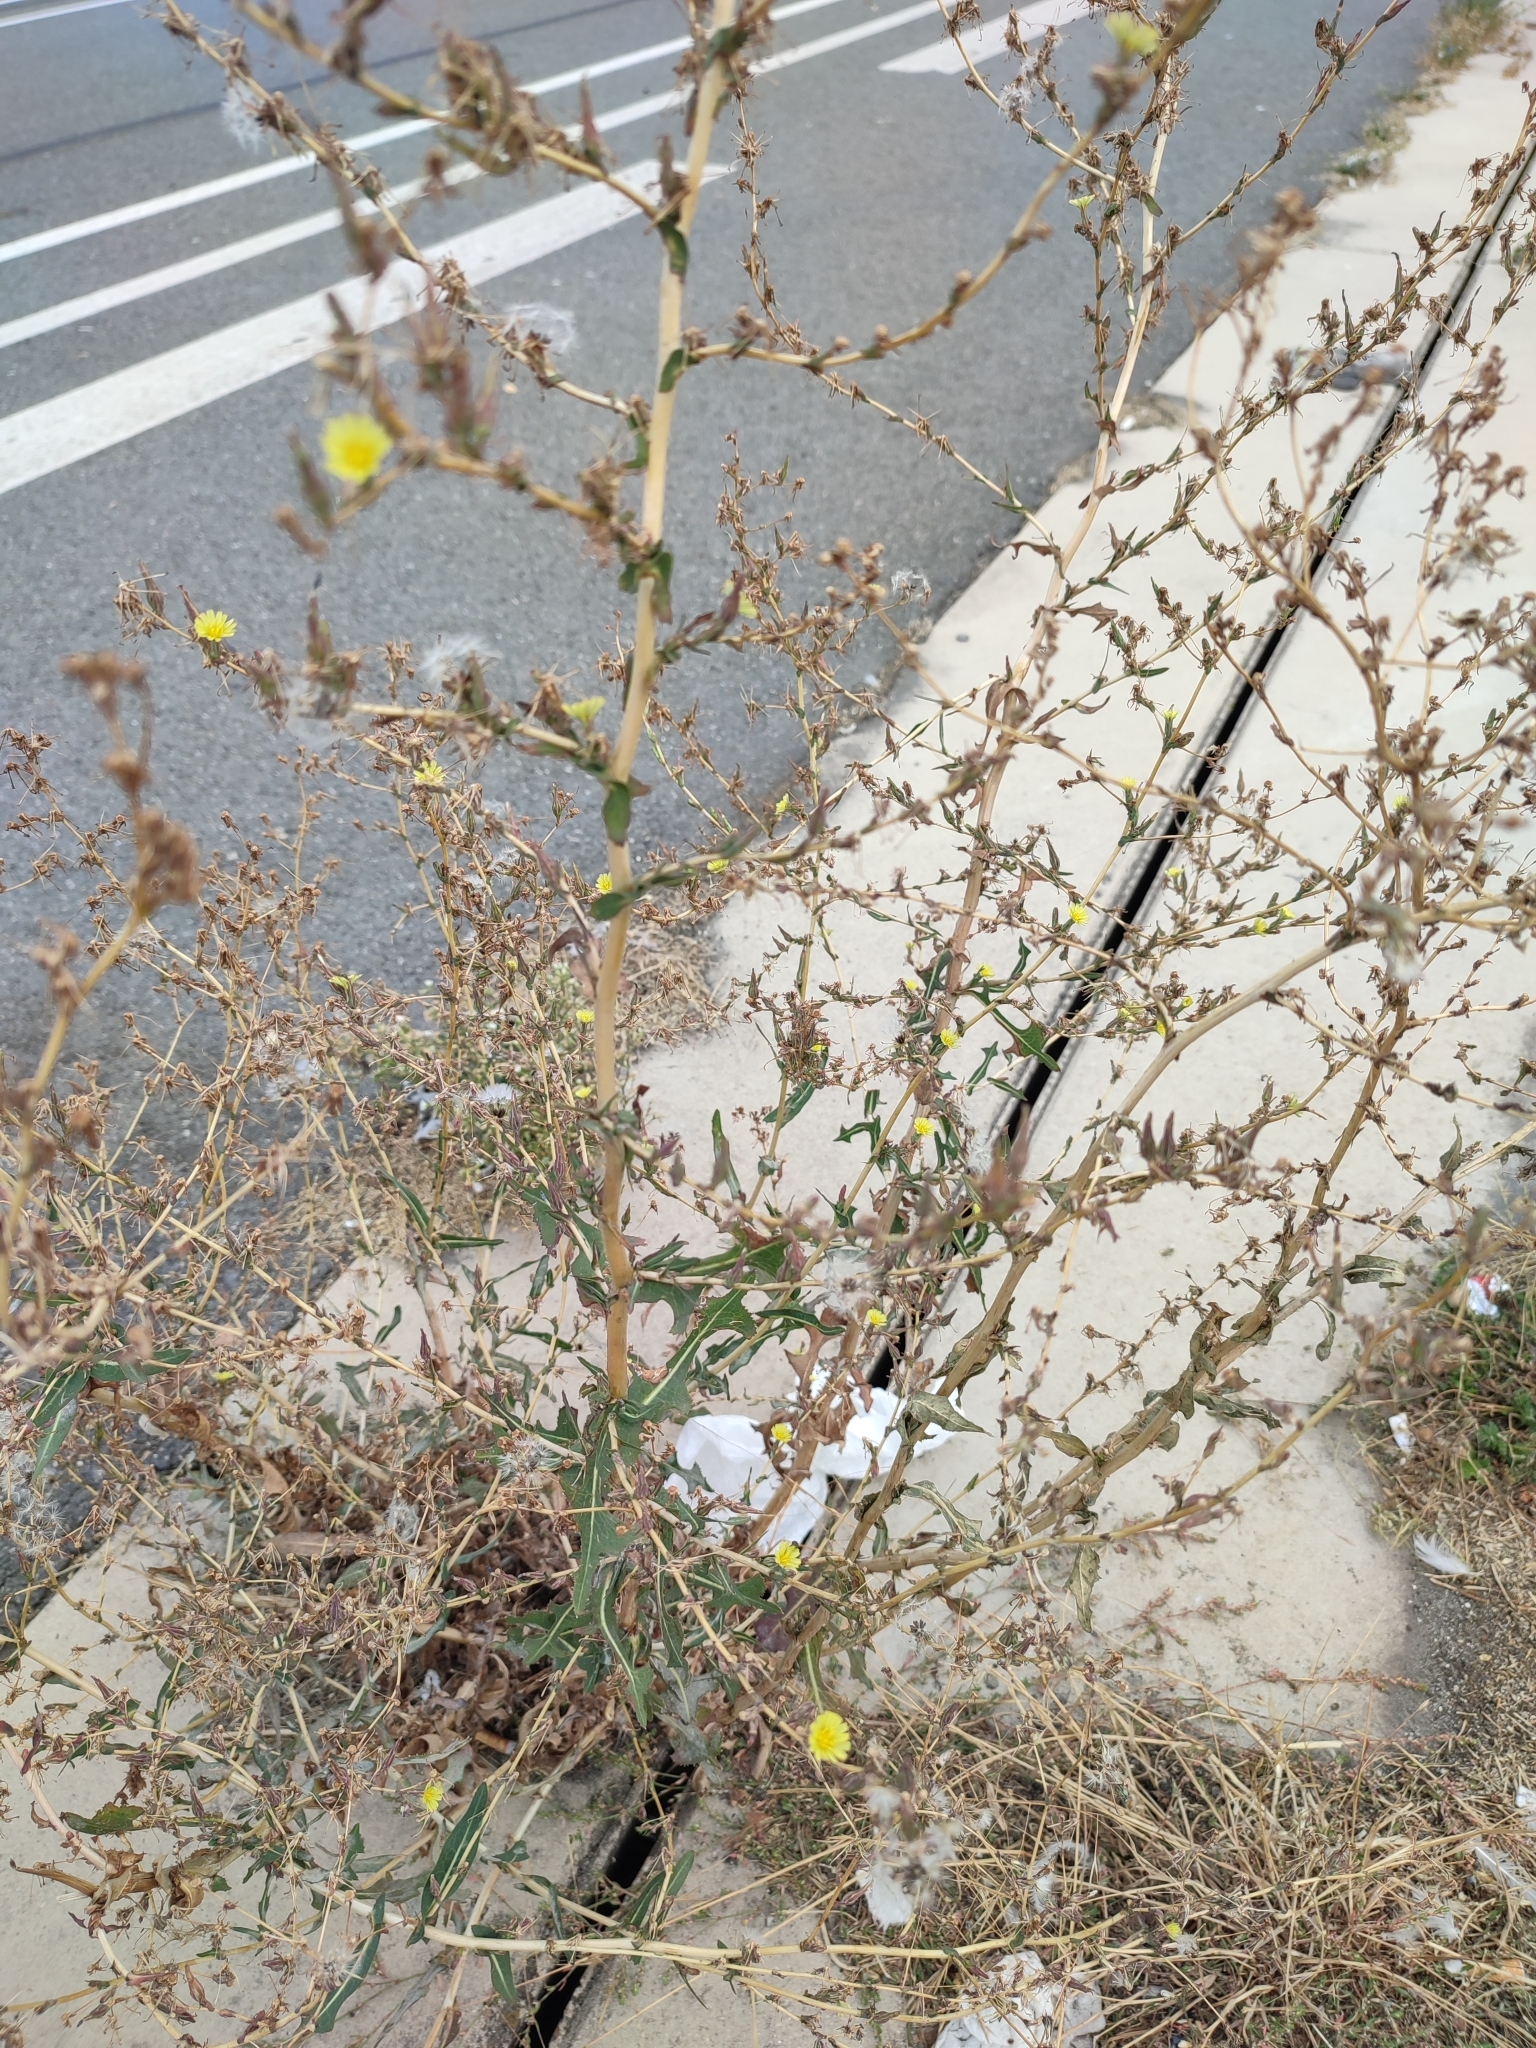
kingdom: Plantae
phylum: Tracheophyta
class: Magnoliopsida
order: Asterales
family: Asteraceae
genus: Lactuca
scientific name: Lactuca serriola
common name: Prickly lettuce
